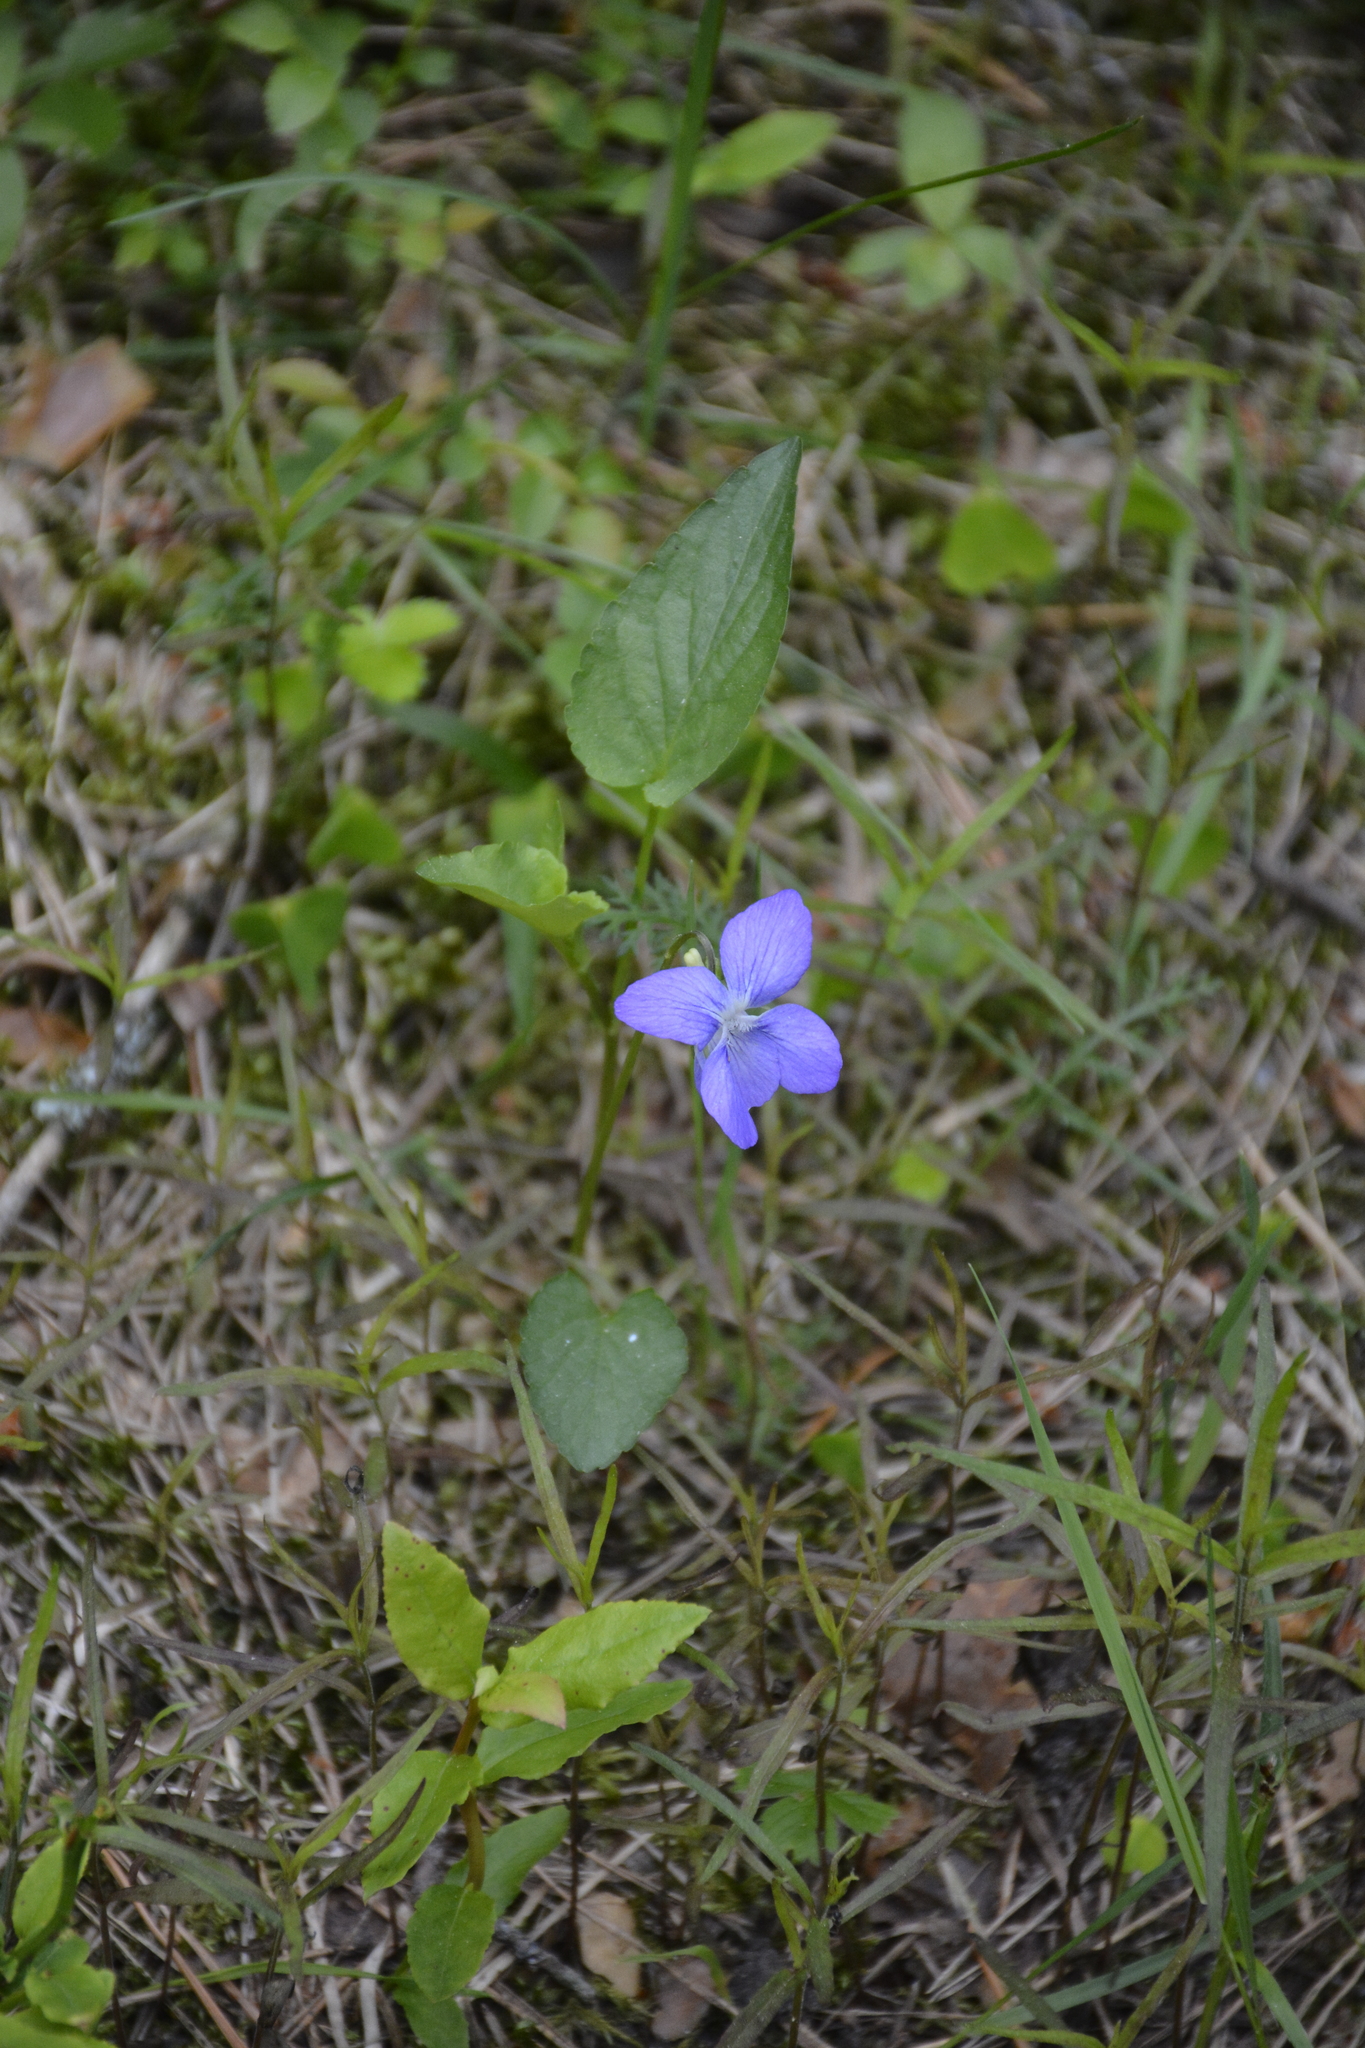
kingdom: Plantae
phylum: Tracheophyta
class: Magnoliopsida
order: Malpighiales
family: Violaceae
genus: Viola
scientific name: Viola canina
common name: Heath dog-violet
